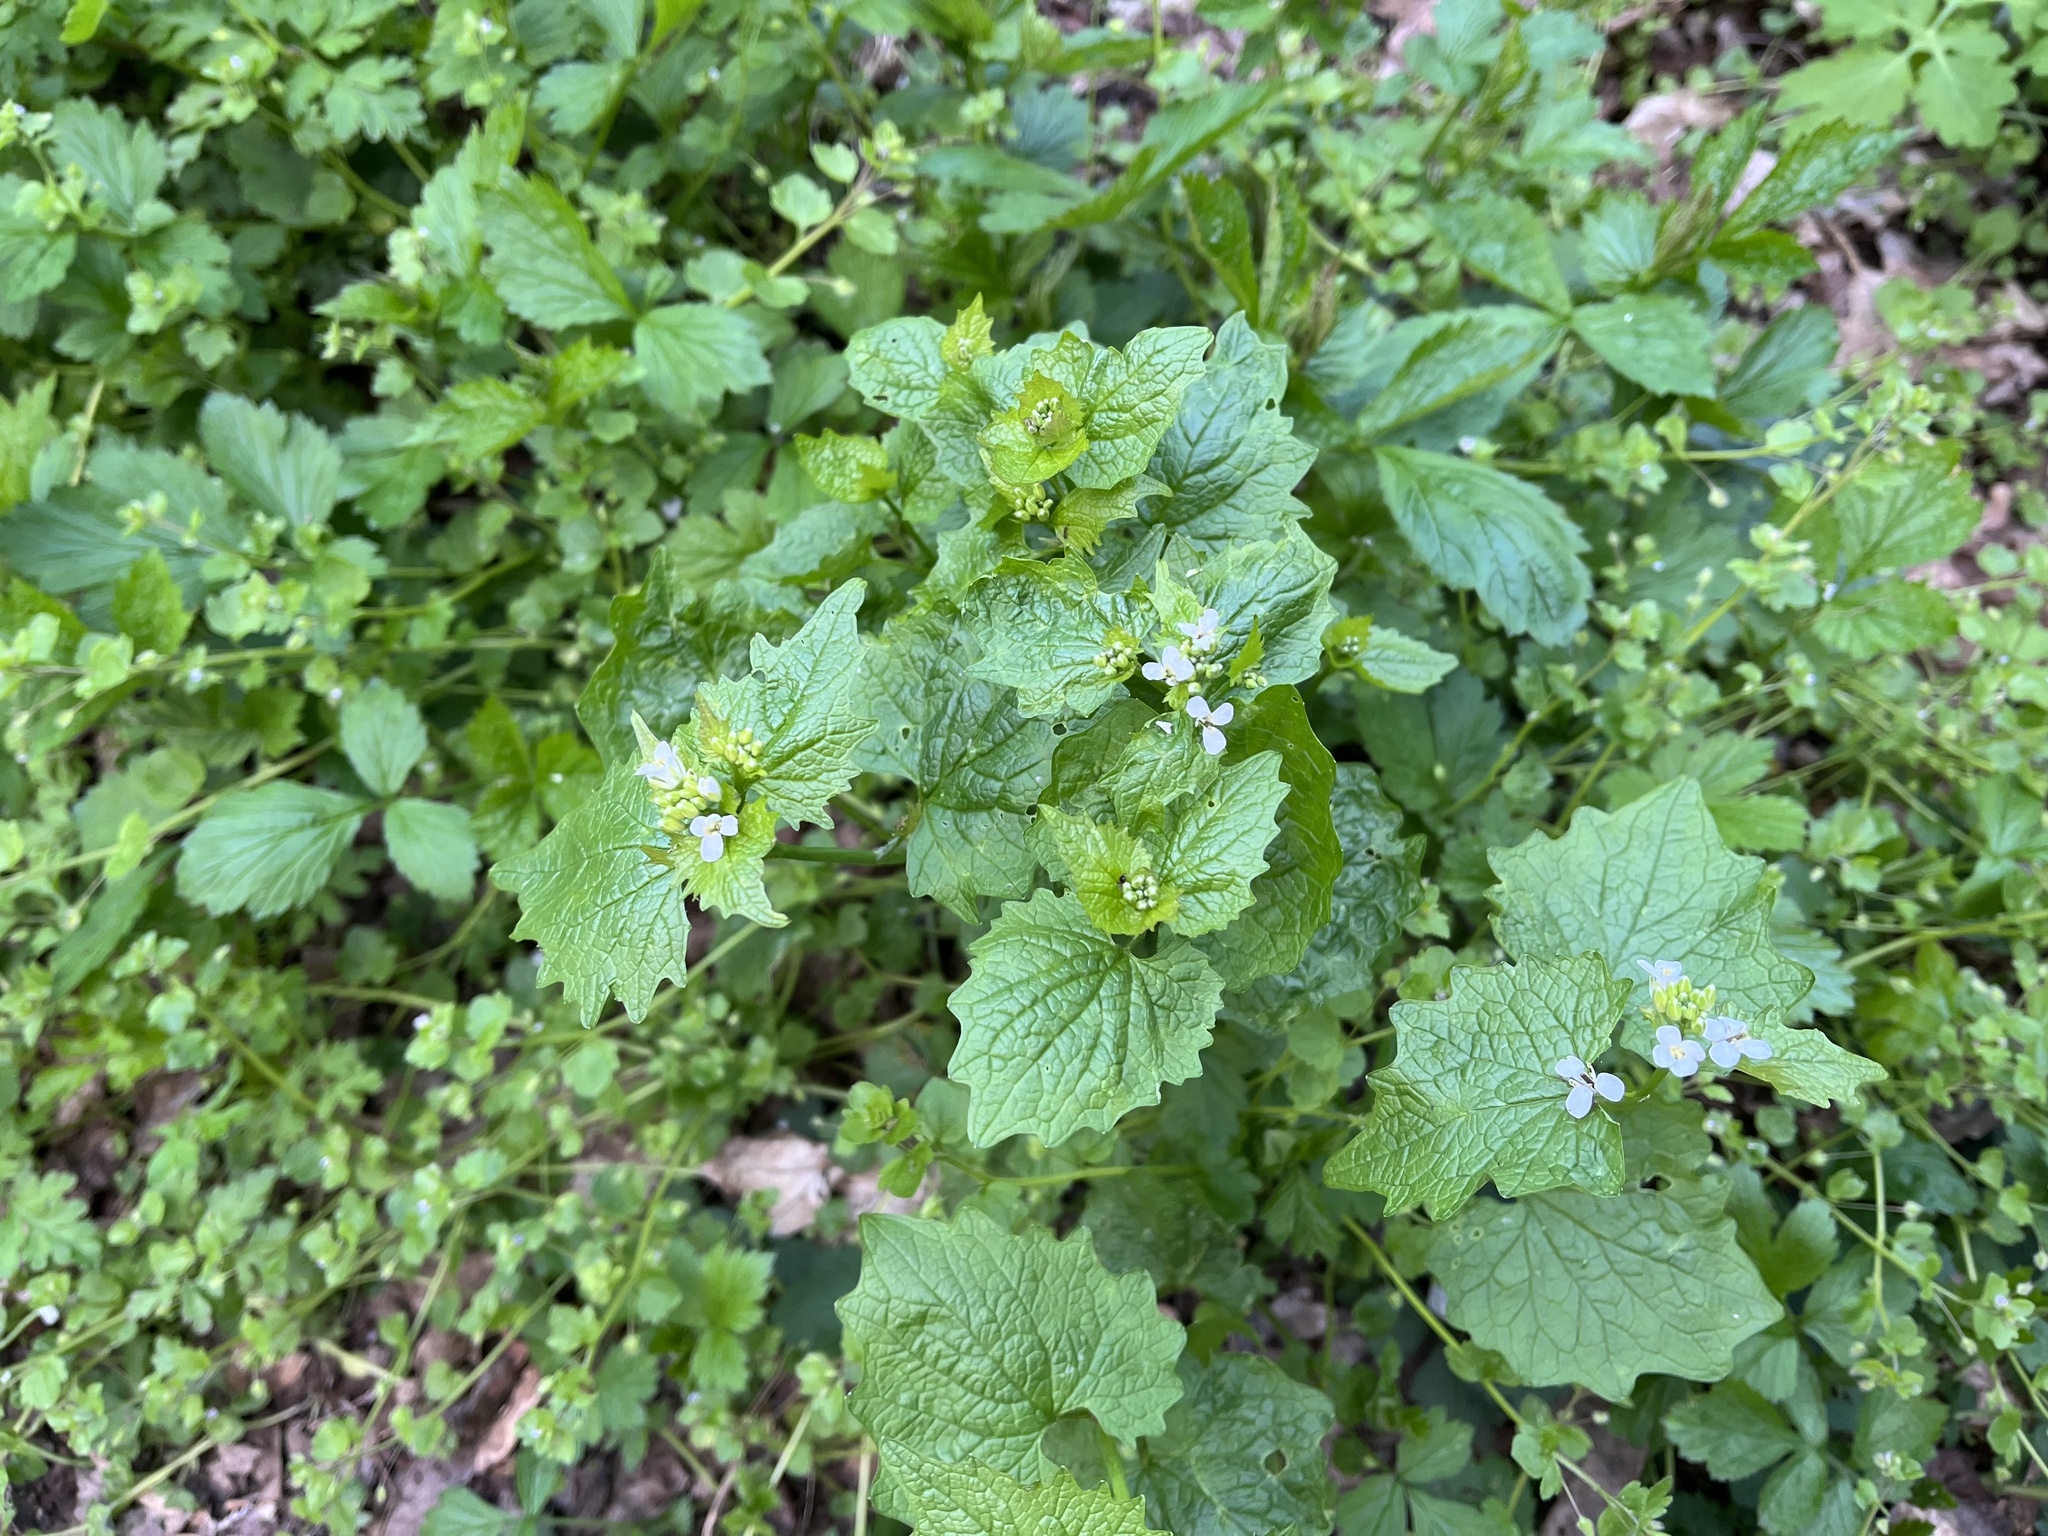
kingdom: Plantae
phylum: Tracheophyta
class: Magnoliopsida
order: Brassicales
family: Brassicaceae
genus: Alliaria
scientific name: Alliaria petiolata
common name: Garlic mustard
